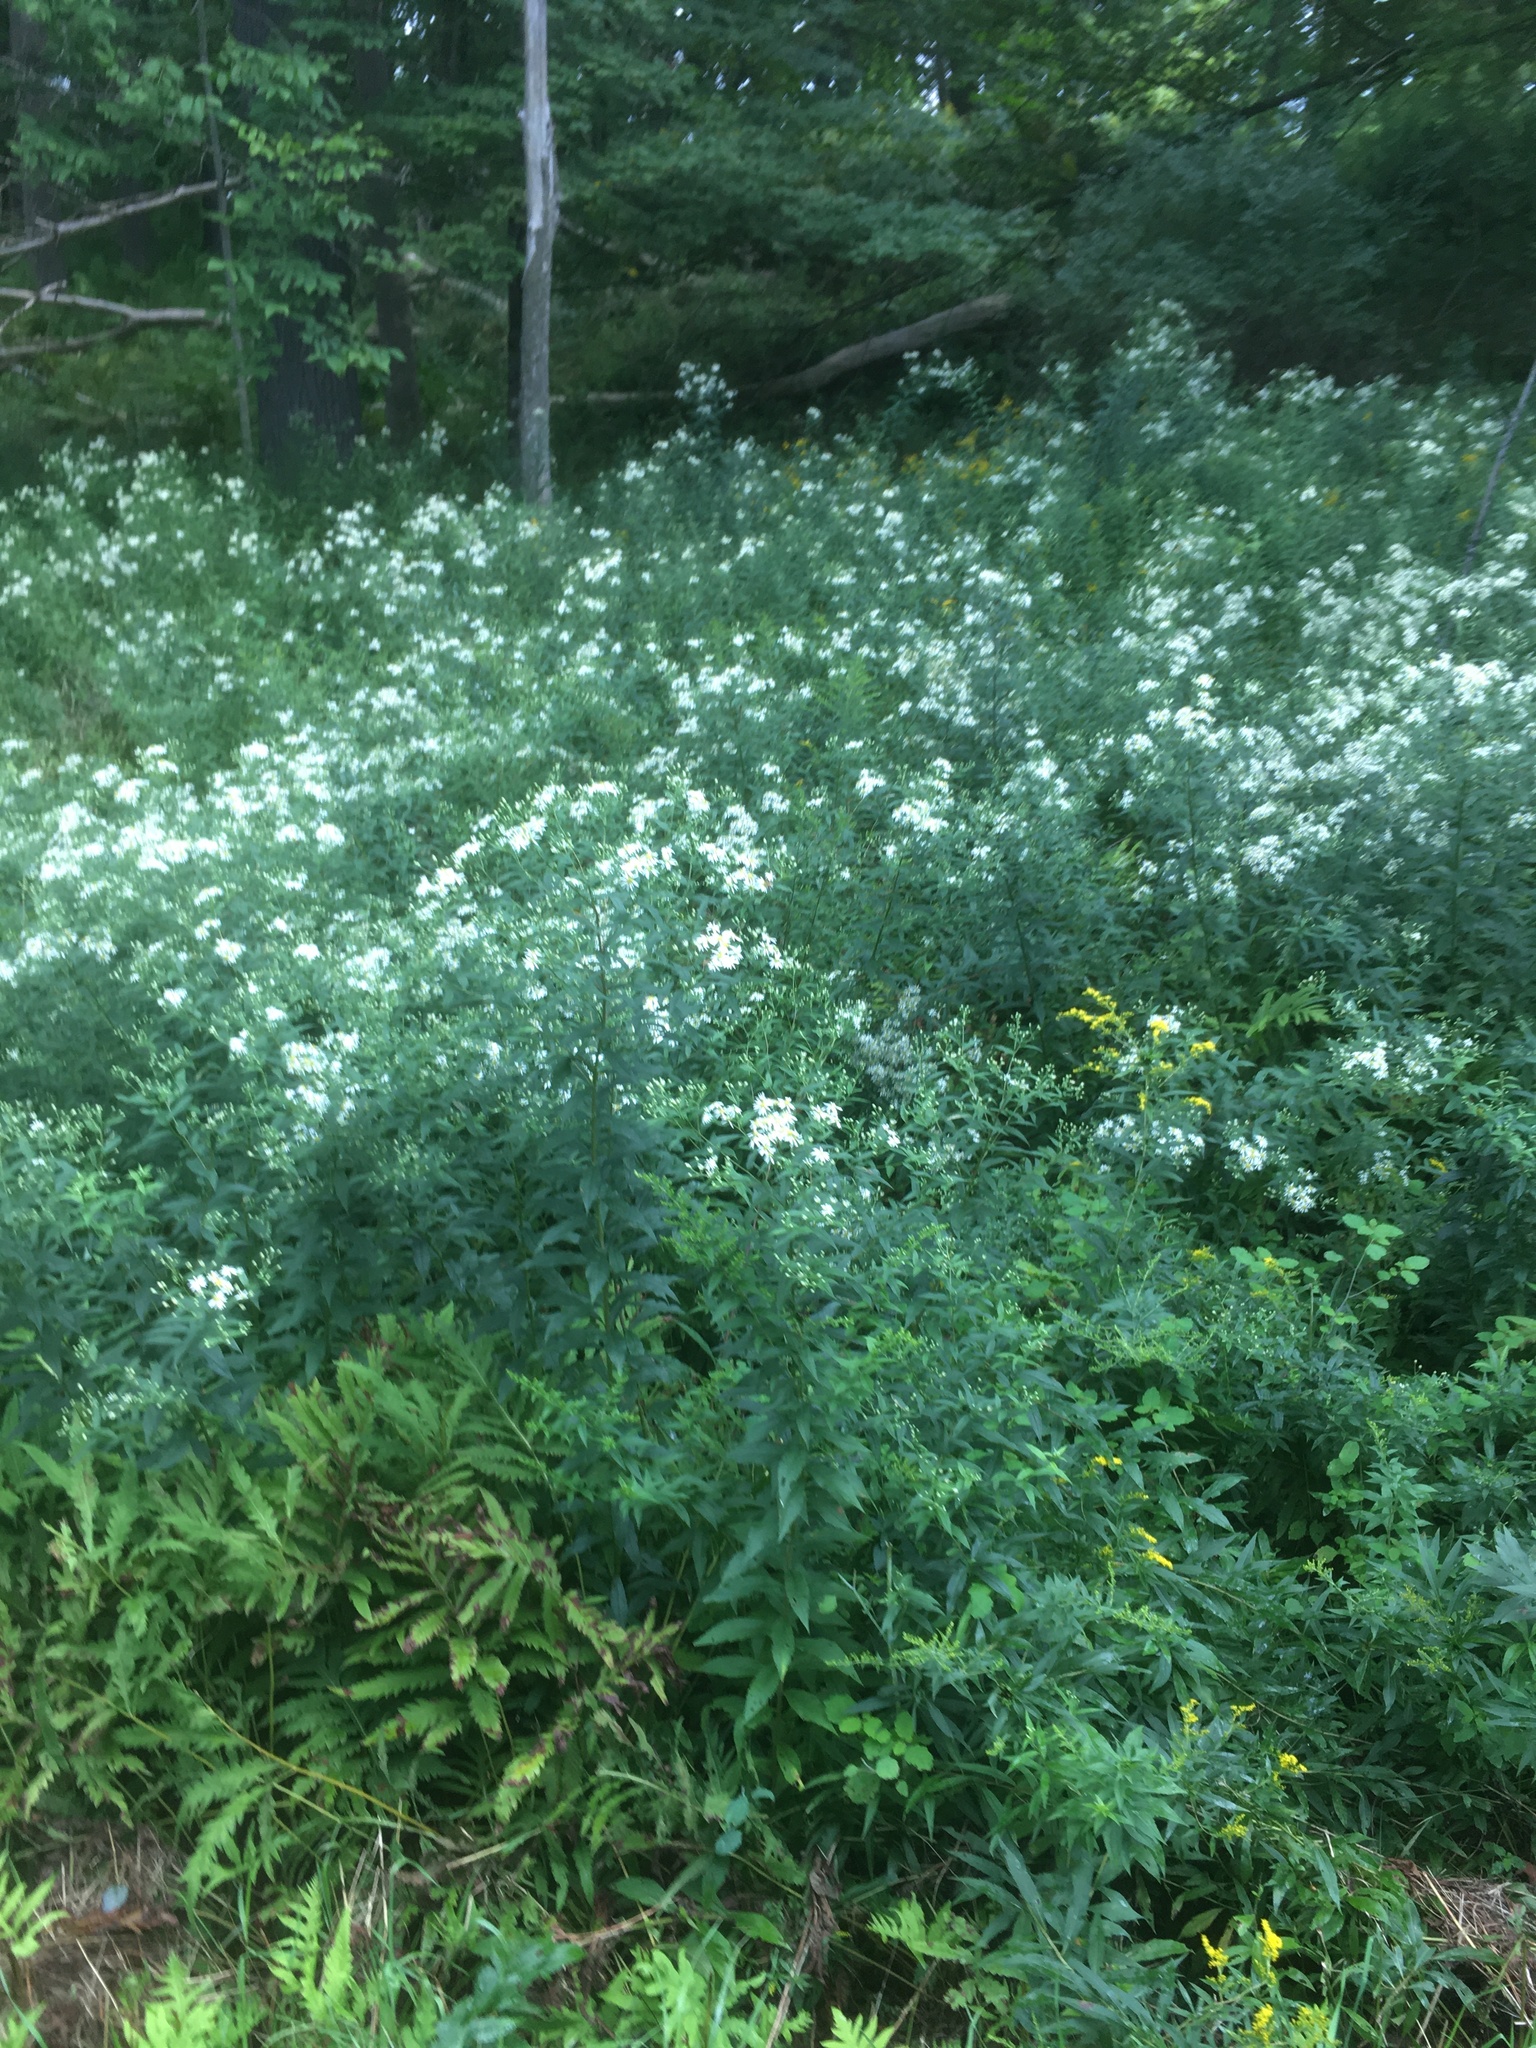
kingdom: Plantae
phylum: Tracheophyta
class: Magnoliopsida
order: Asterales
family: Asteraceae
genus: Doellingeria
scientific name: Doellingeria umbellata
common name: Flat-top white aster
